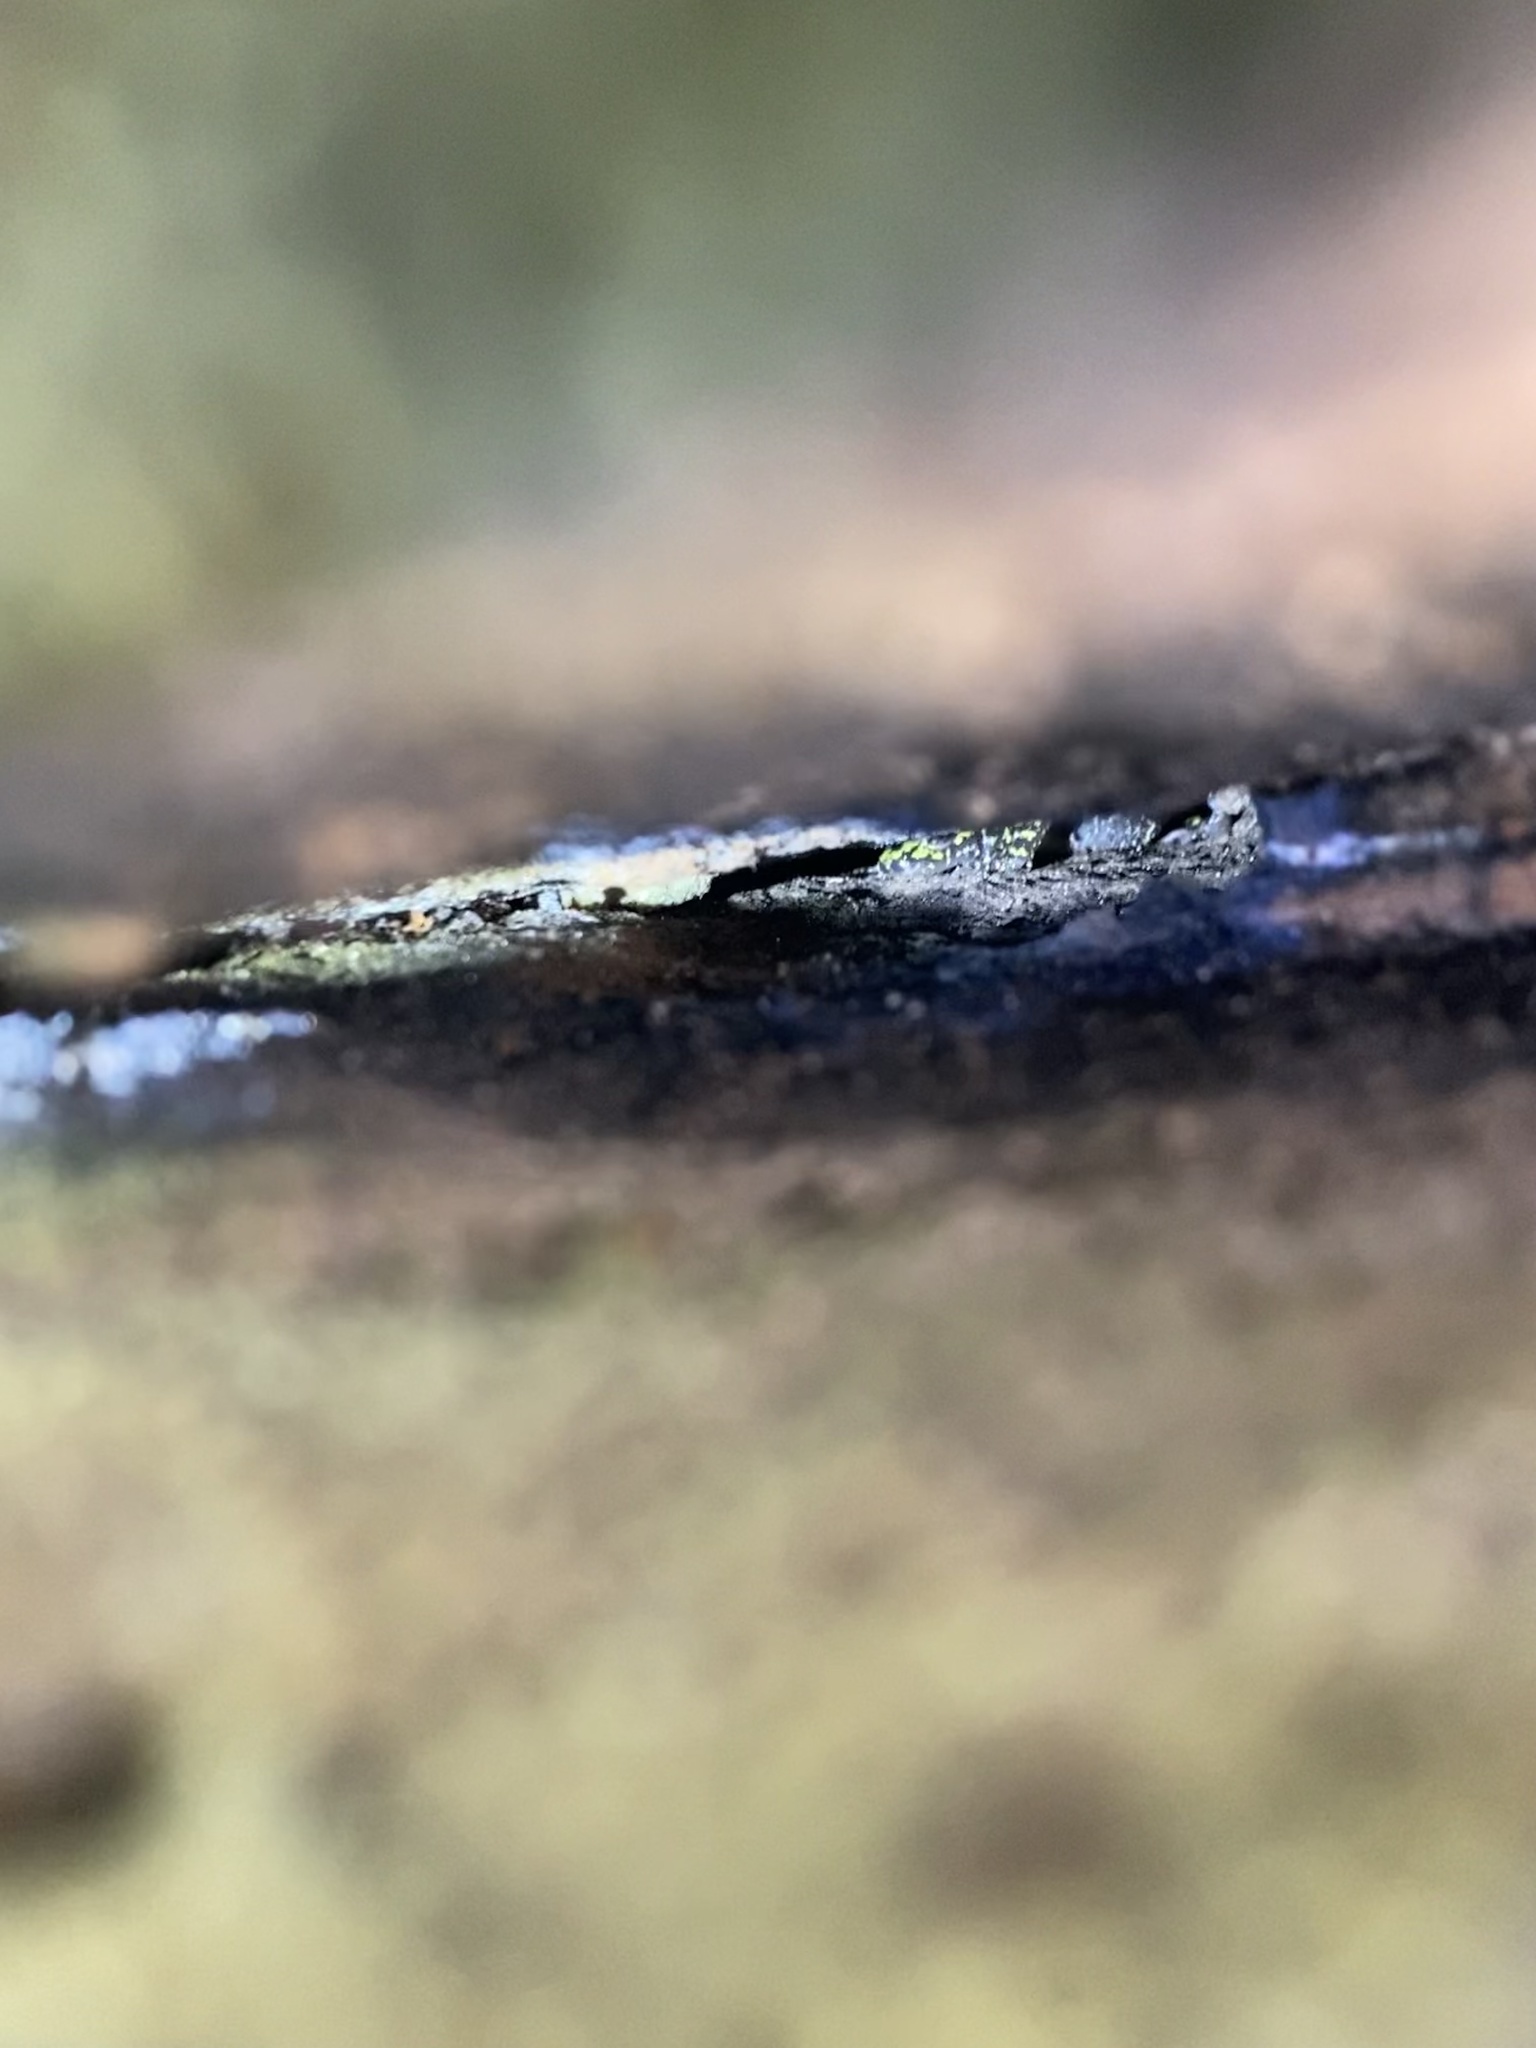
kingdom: Animalia
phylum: Chordata
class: Amphibia
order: Caudata
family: Plethodontidae
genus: Aneides
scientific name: Aneides aeneus
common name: Green salamander
